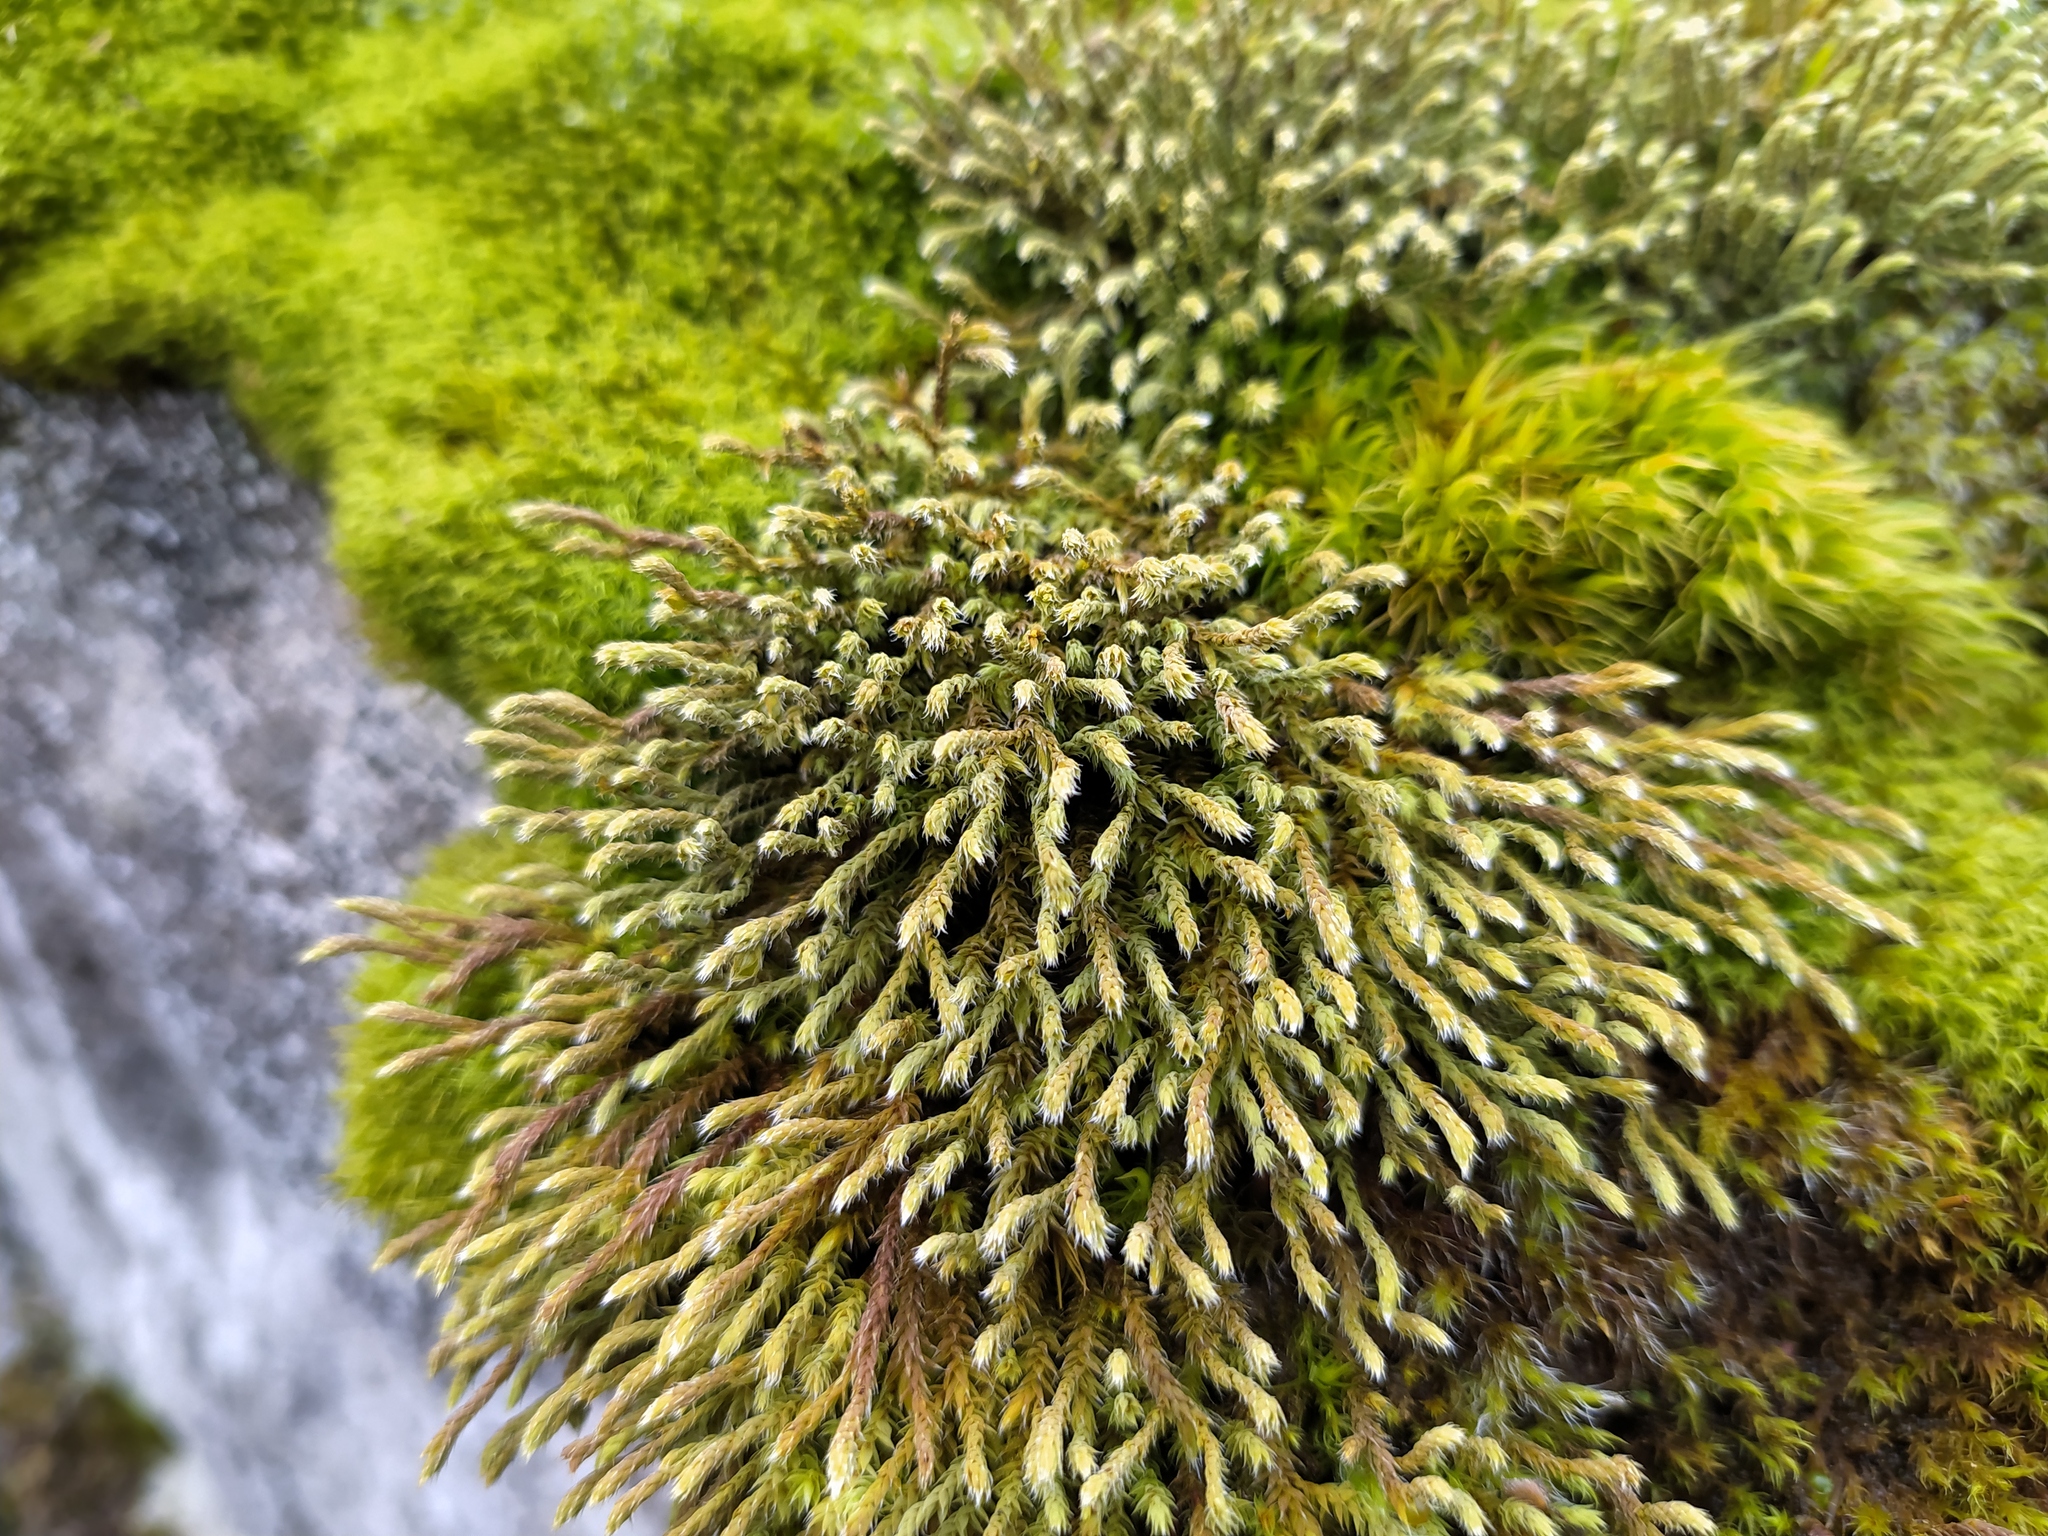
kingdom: Plantae
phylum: Bryophyta
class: Bryopsida
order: Hedwigiales
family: Hedwigiaceae
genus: Hedwigia
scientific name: Hedwigia ciliata
